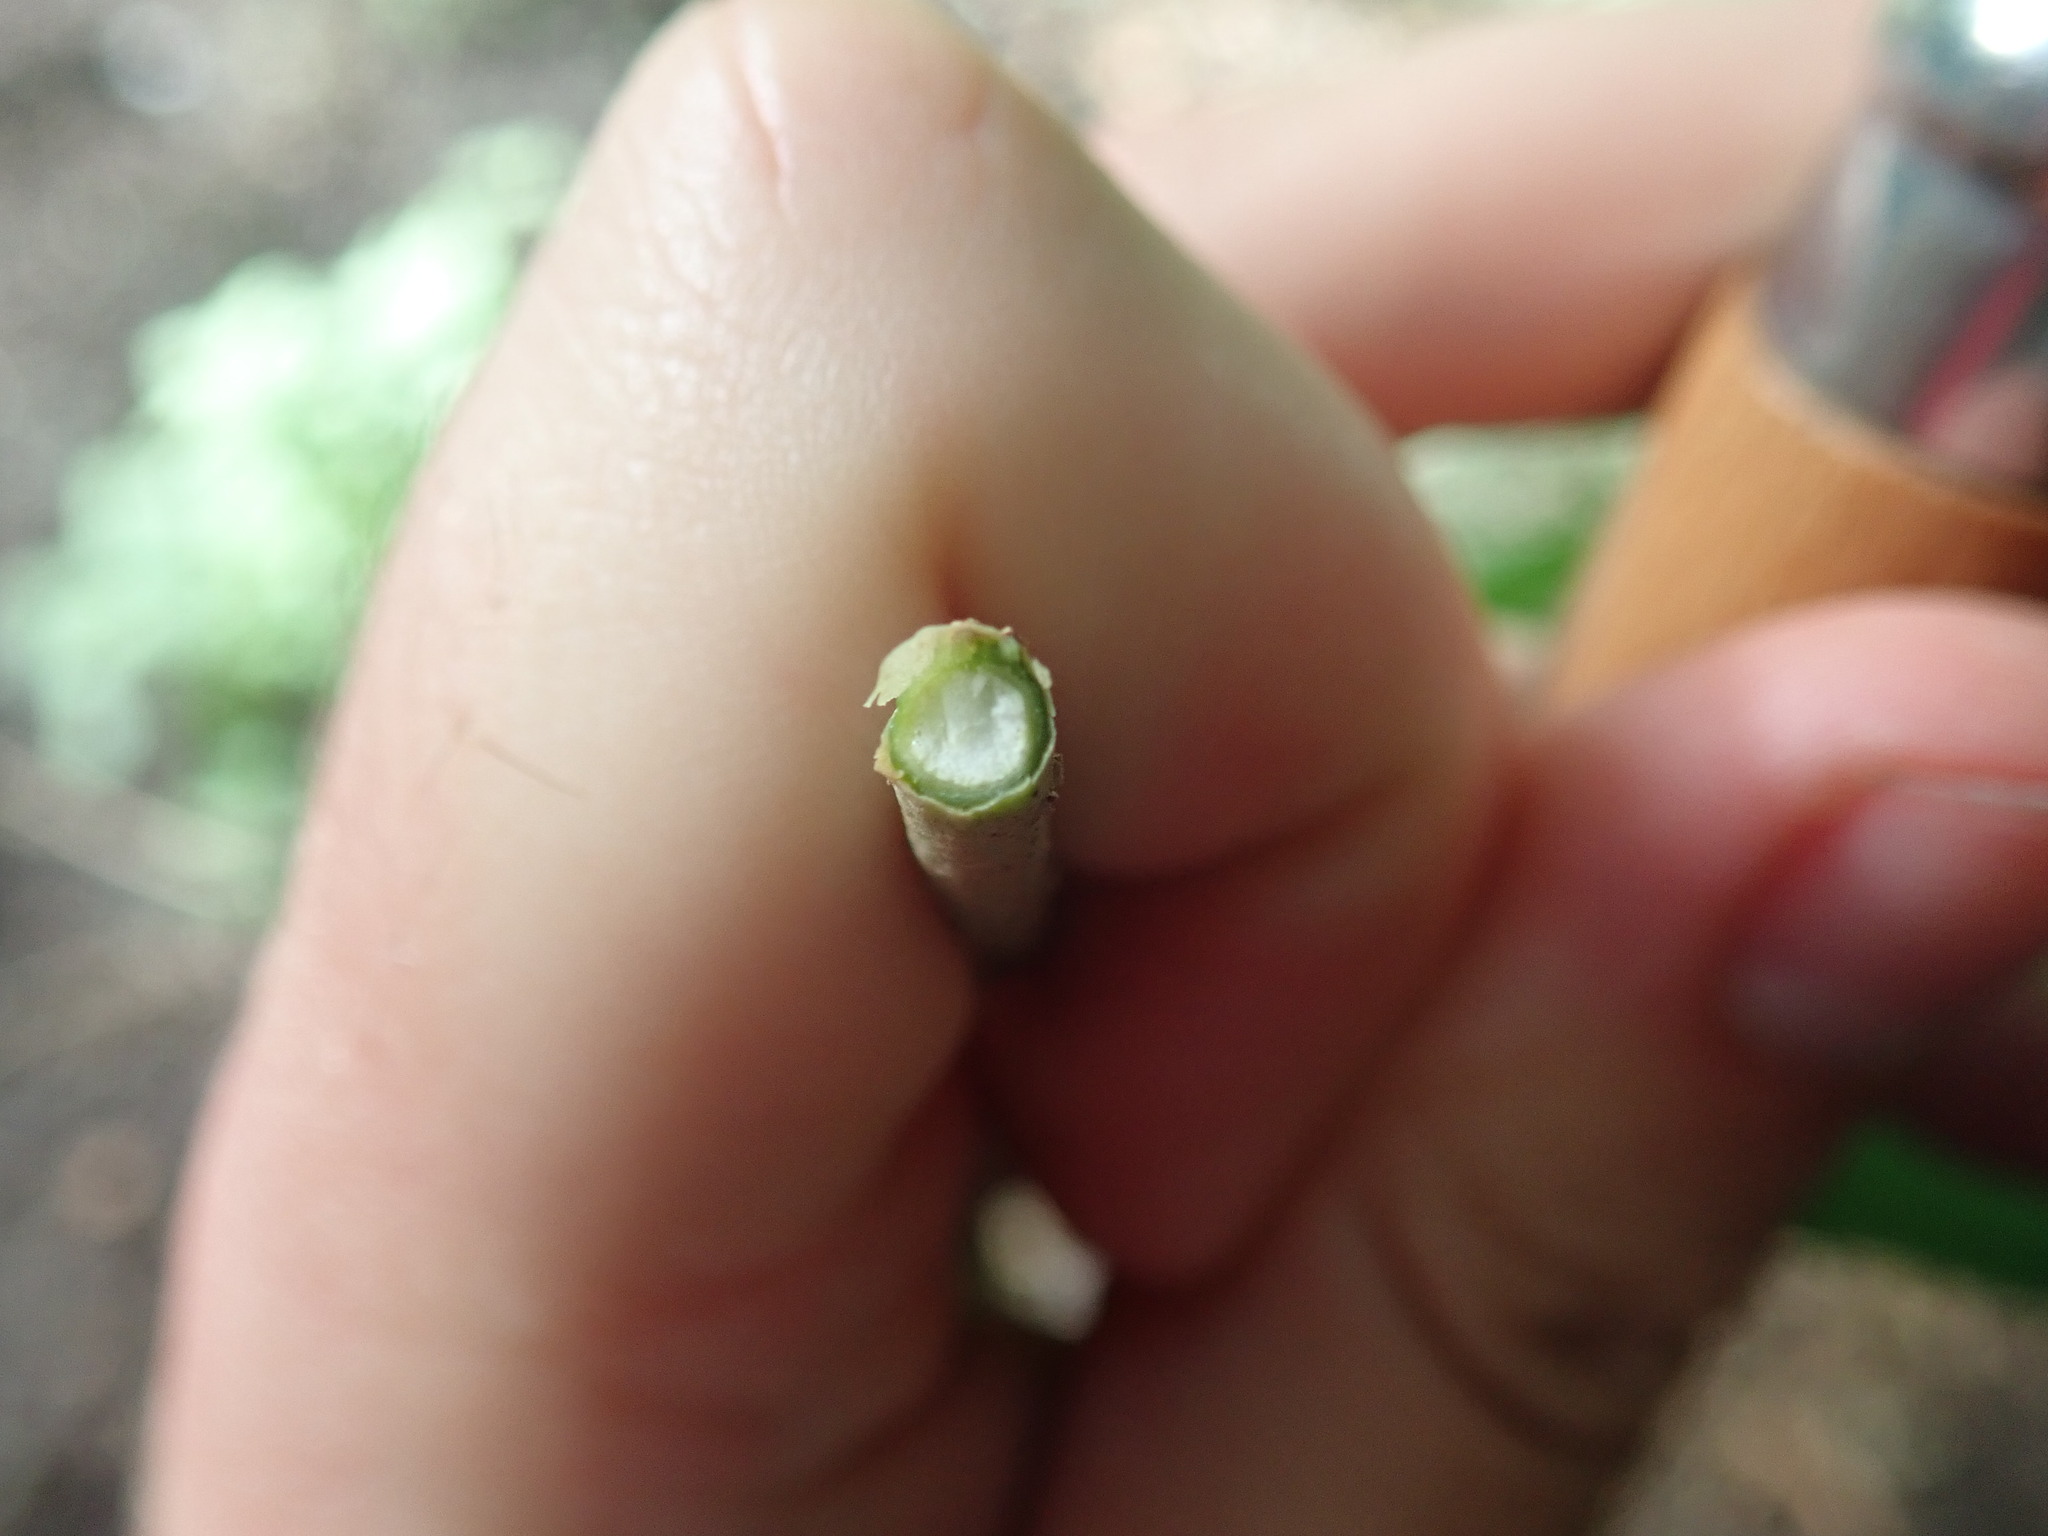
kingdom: Plantae
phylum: Tracheophyta
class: Magnoliopsida
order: Dipsacales
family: Viburnaceae
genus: Sambucus
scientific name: Sambucus nigra
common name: Elder
